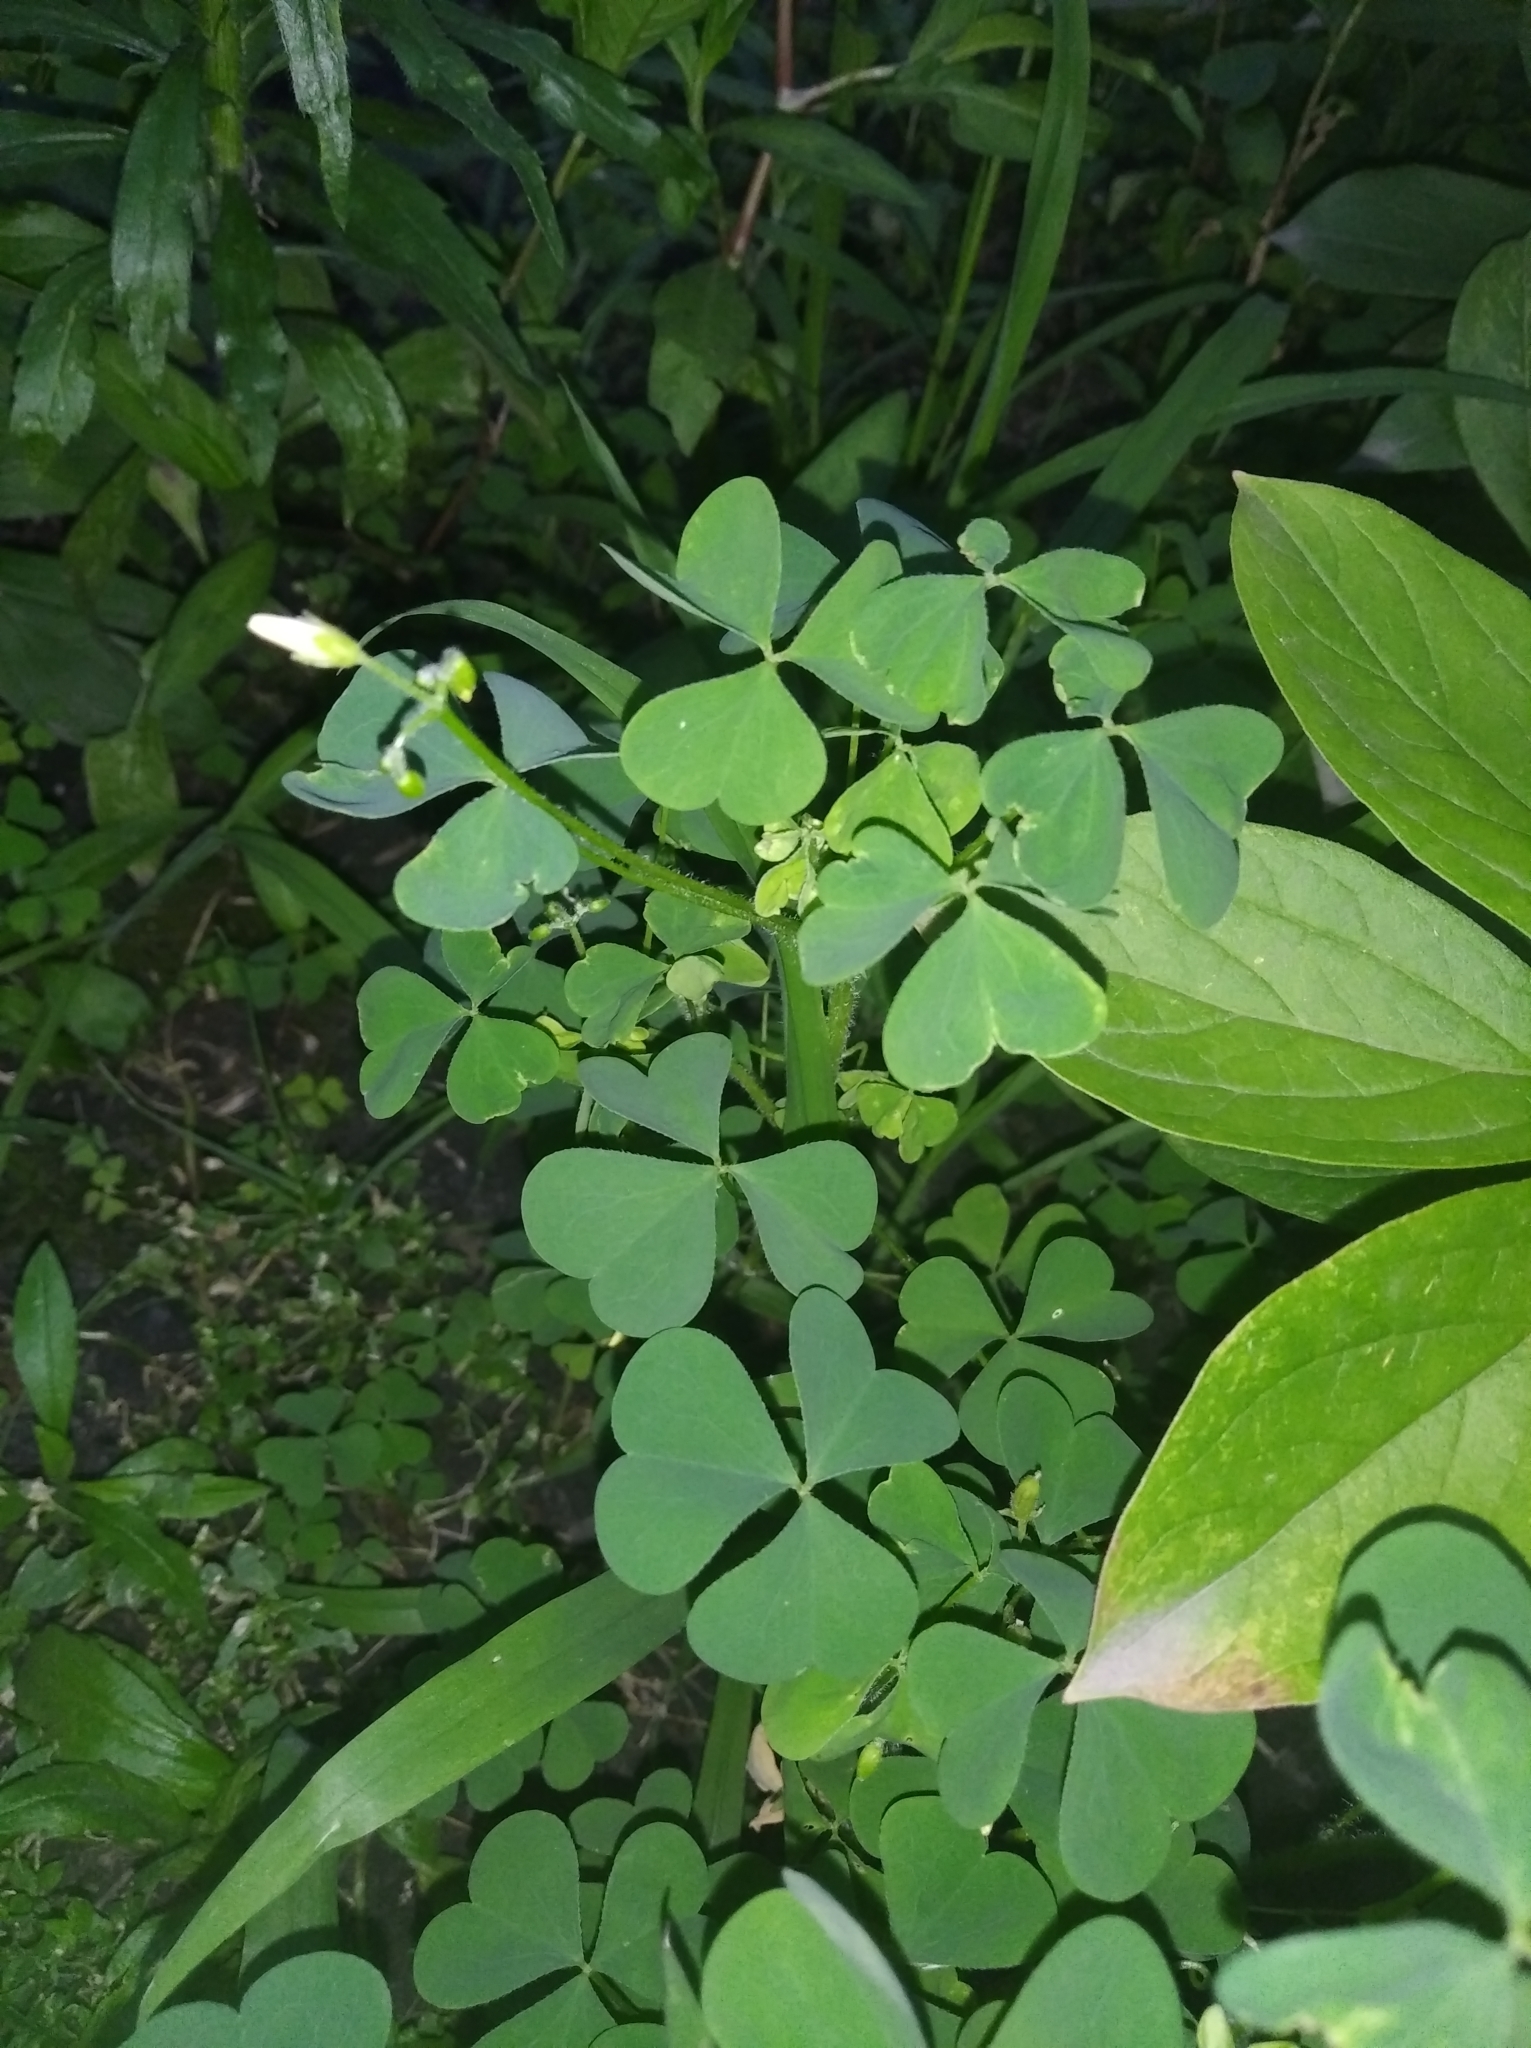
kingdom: Plantae
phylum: Tracheophyta
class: Magnoliopsida
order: Oxalidales
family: Oxalidaceae
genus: Oxalis
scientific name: Oxalis stricta
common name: Upright yellow-sorrel
